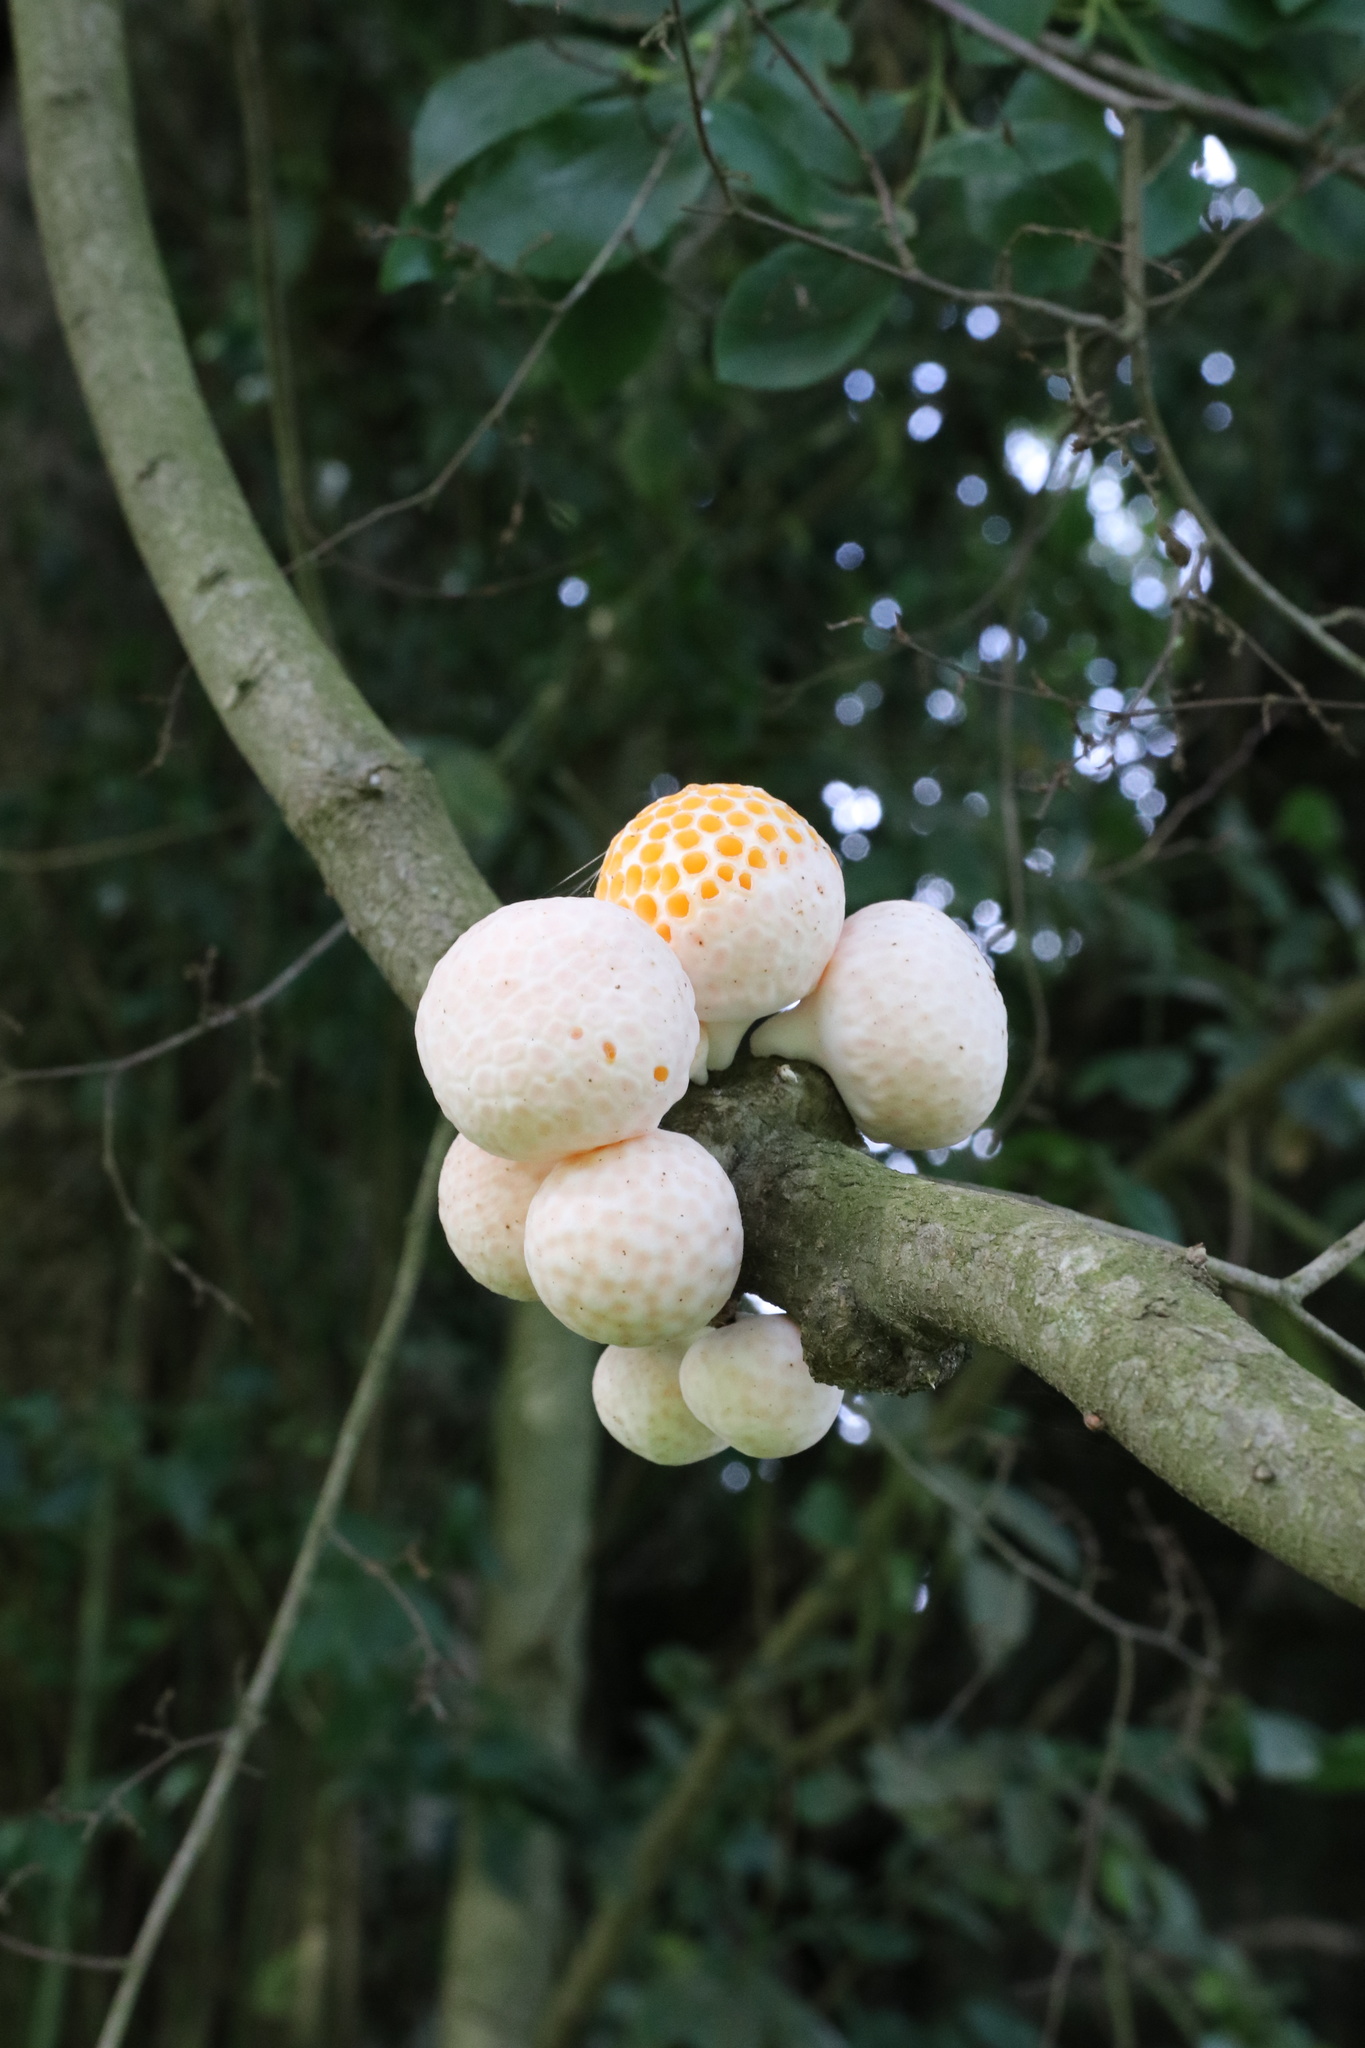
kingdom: Fungi
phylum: Ascomycota
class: Leotiomycetes
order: Cyttariales
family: Cyttariaceae
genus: Cyttaria
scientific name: Cyttaria espinosae
